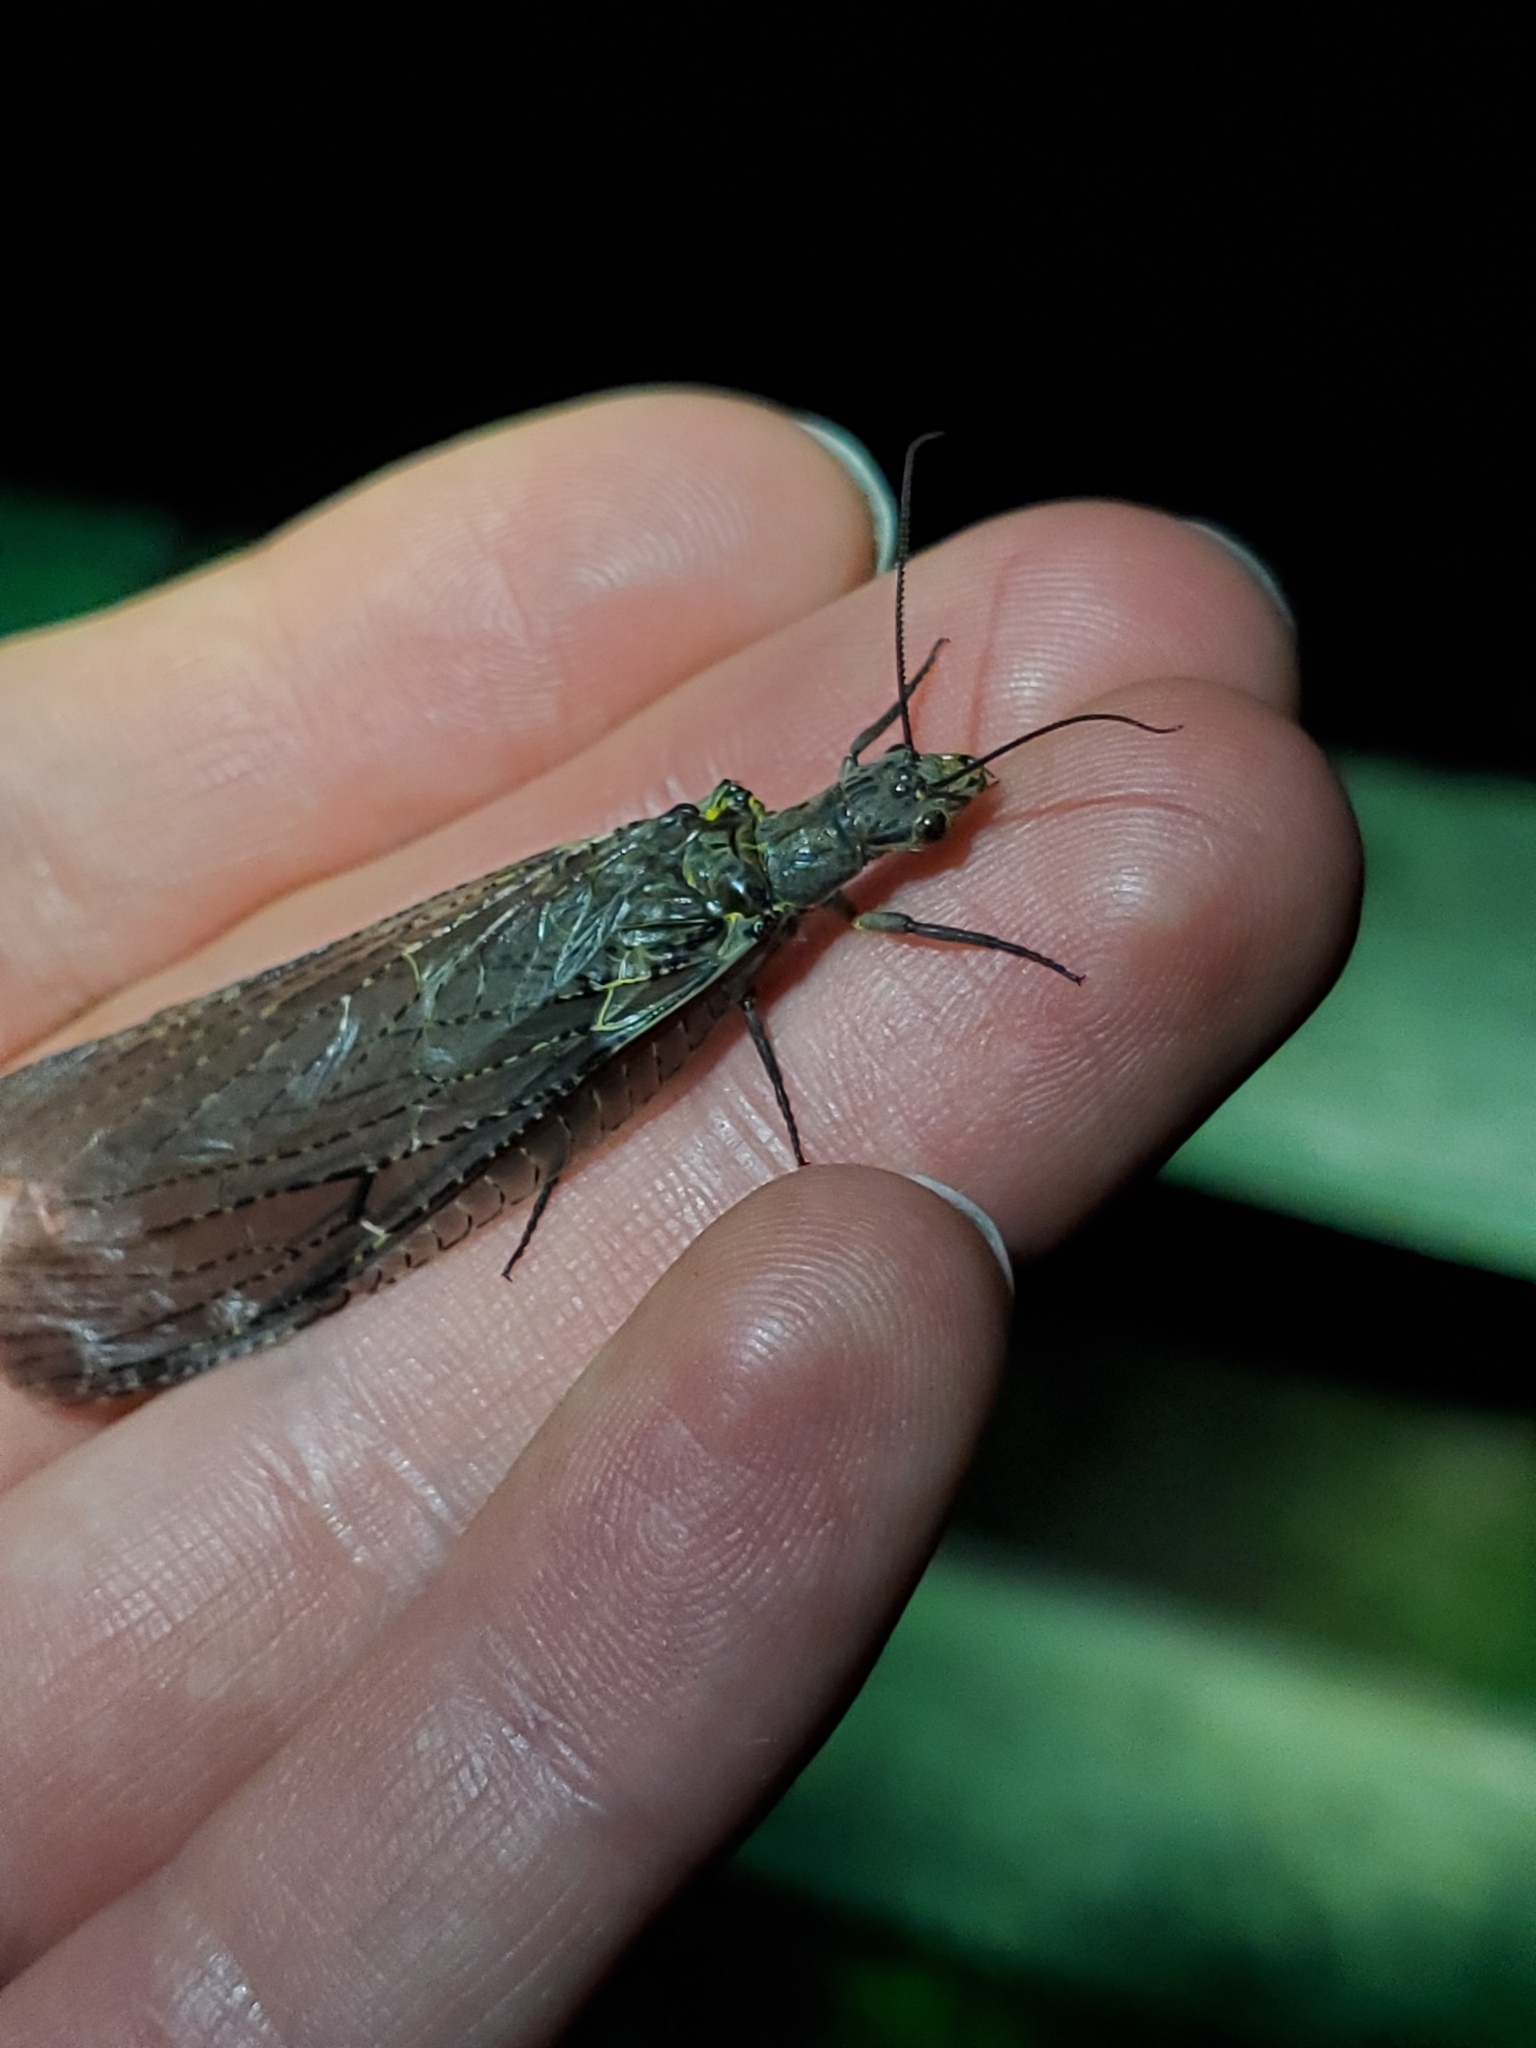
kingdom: Animalia
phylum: Arthropoda
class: Insecta
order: Megaloptera
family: Corydalidae
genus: Chauliodes
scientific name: Chauliodes rastricornis
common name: Spring fishfly
